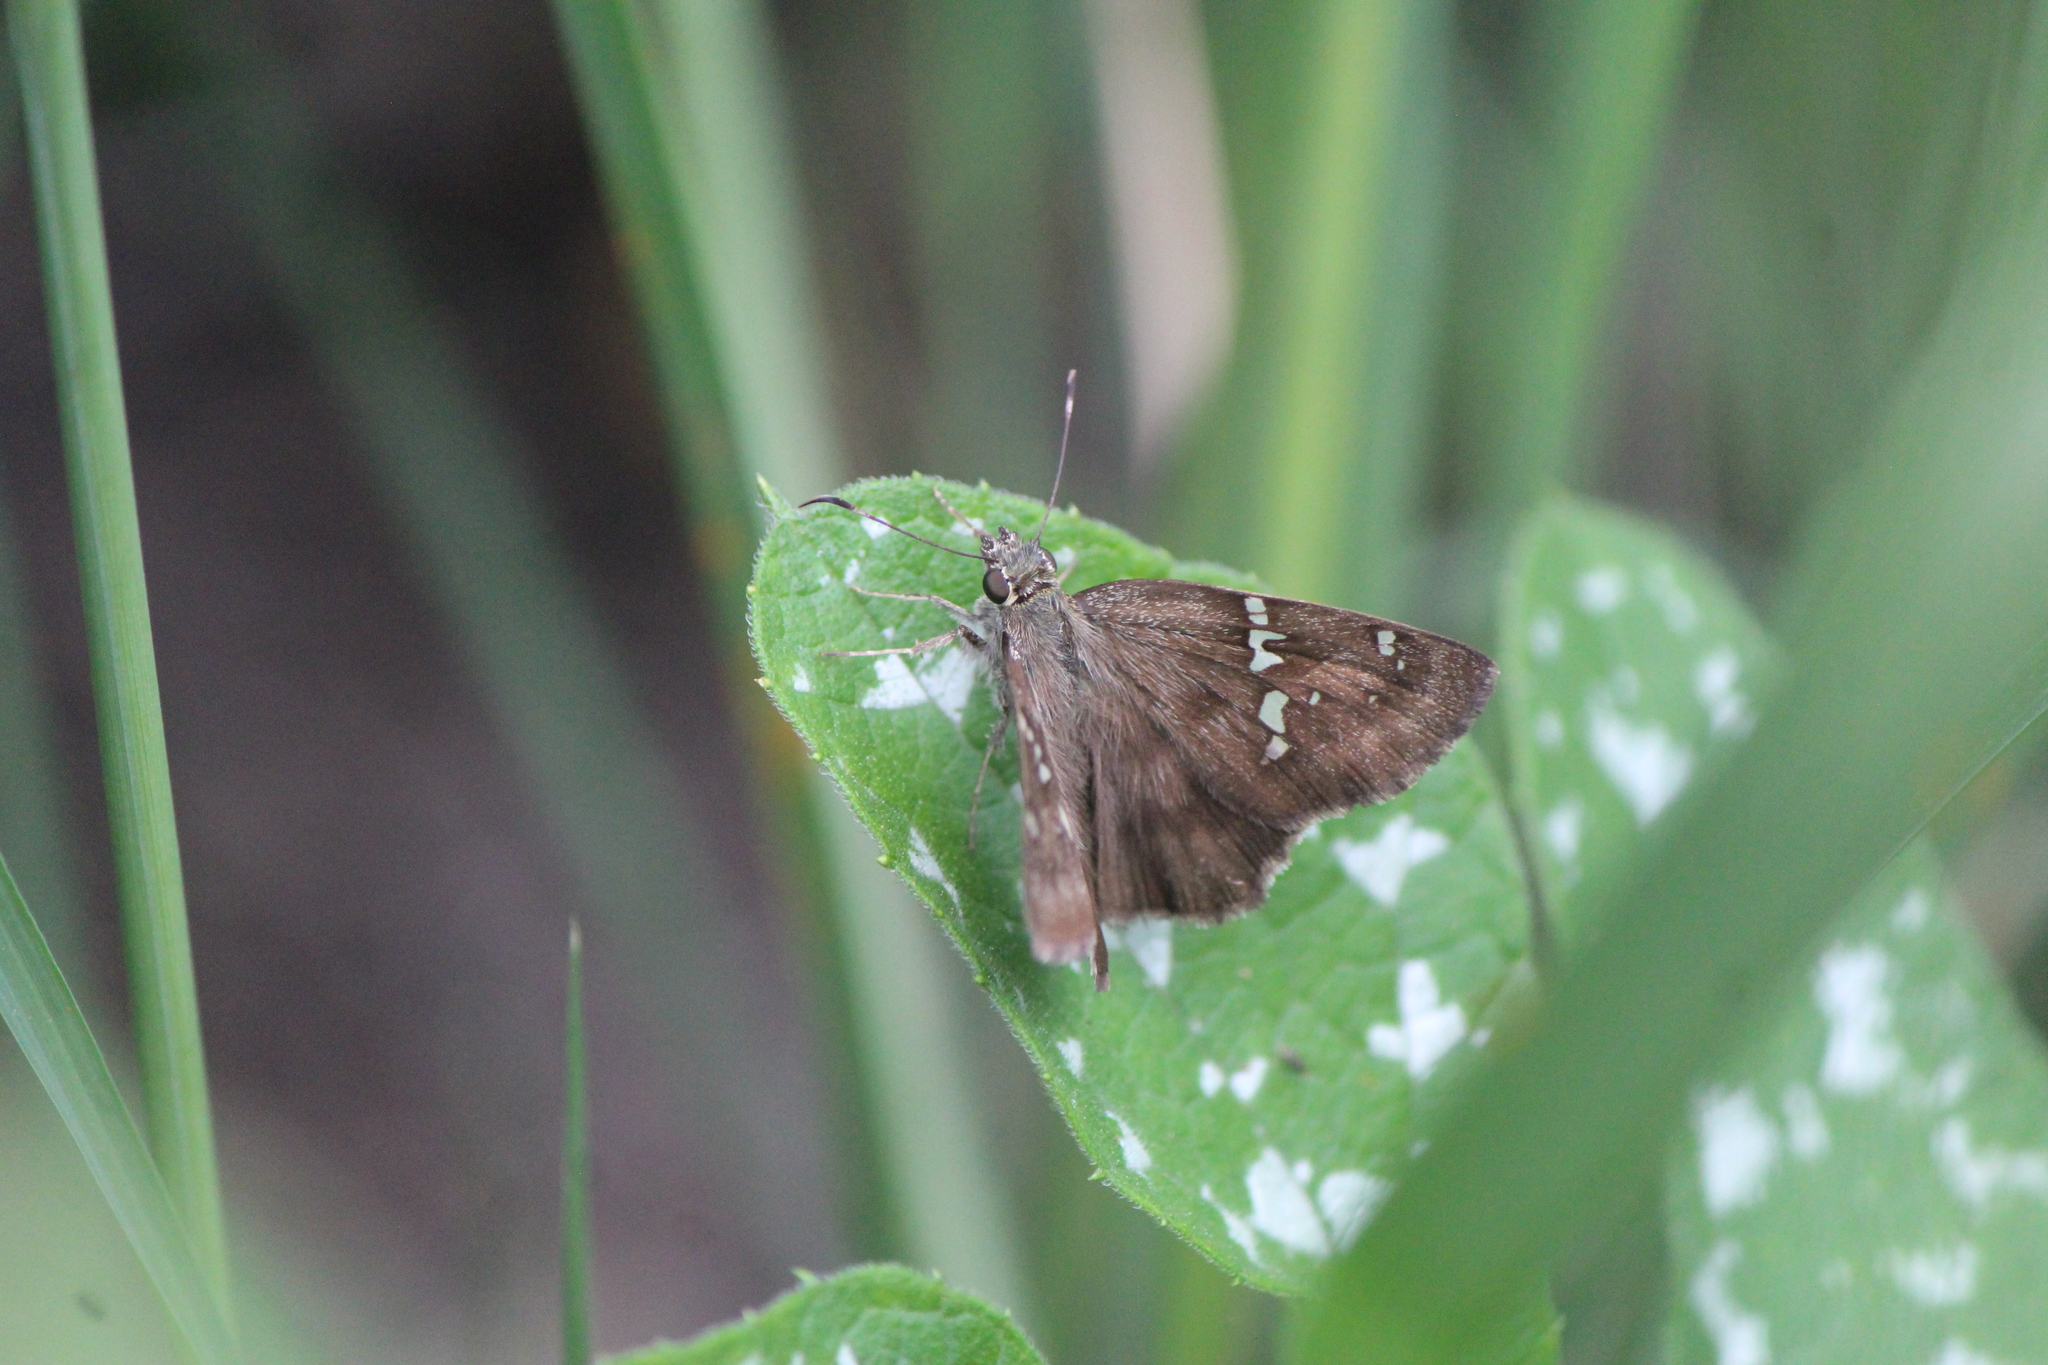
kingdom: Animalia
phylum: Arthropoda
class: Insecta
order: Lepidoptera
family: Hesperiidae
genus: Autochton
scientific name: Autochton potrillo
